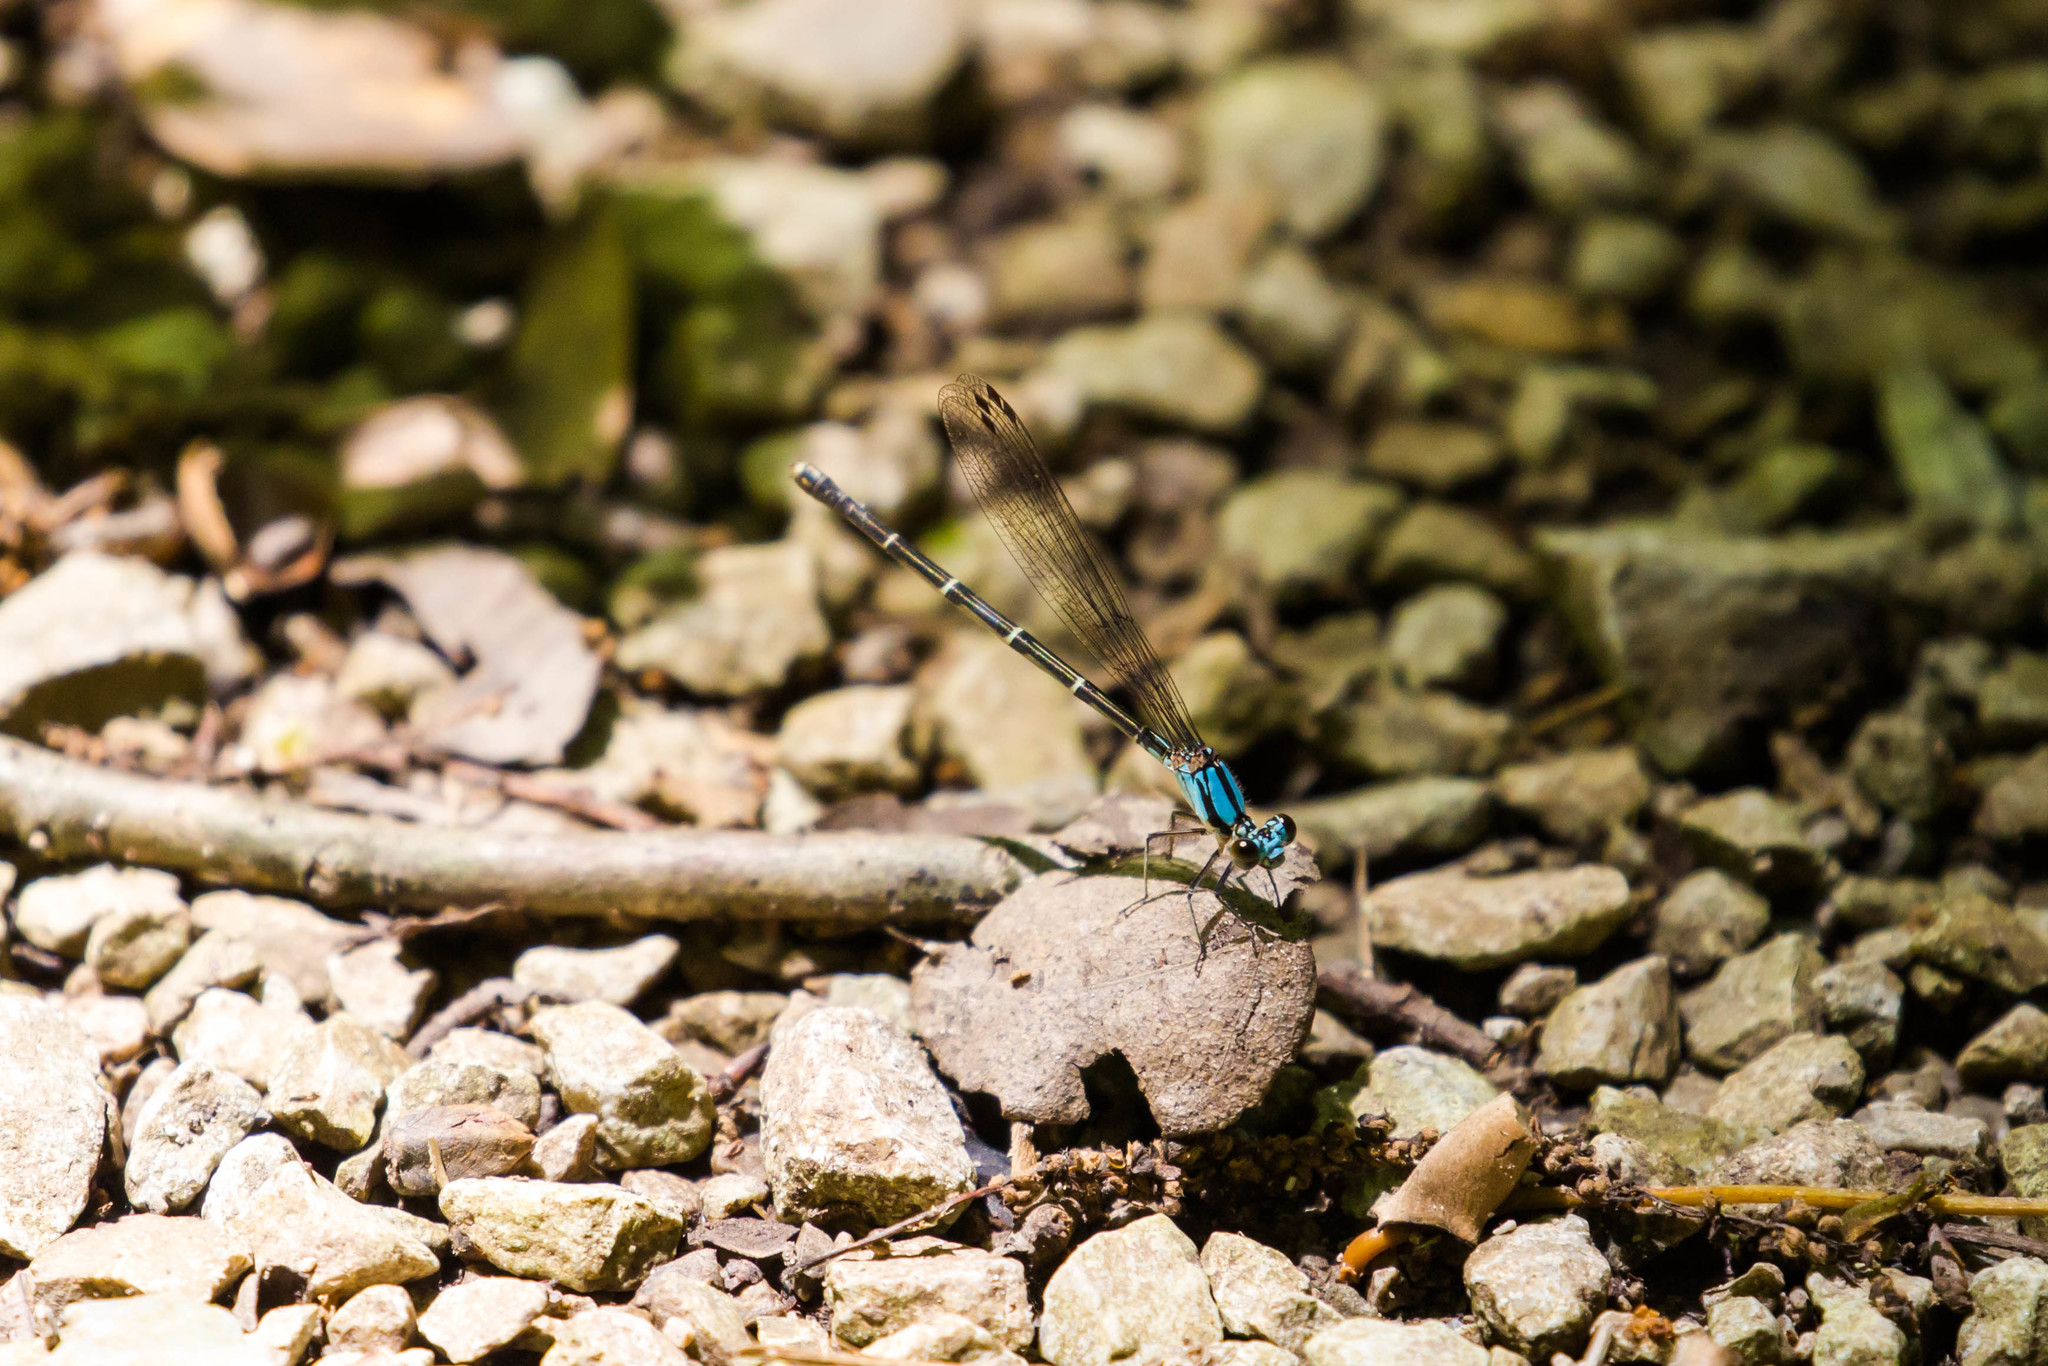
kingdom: Animalia
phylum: Arthropoda
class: Insecta
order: Odonata
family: Coenagrionidae
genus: Argia
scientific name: Argia tibialis
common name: Blue-tipped dancer
